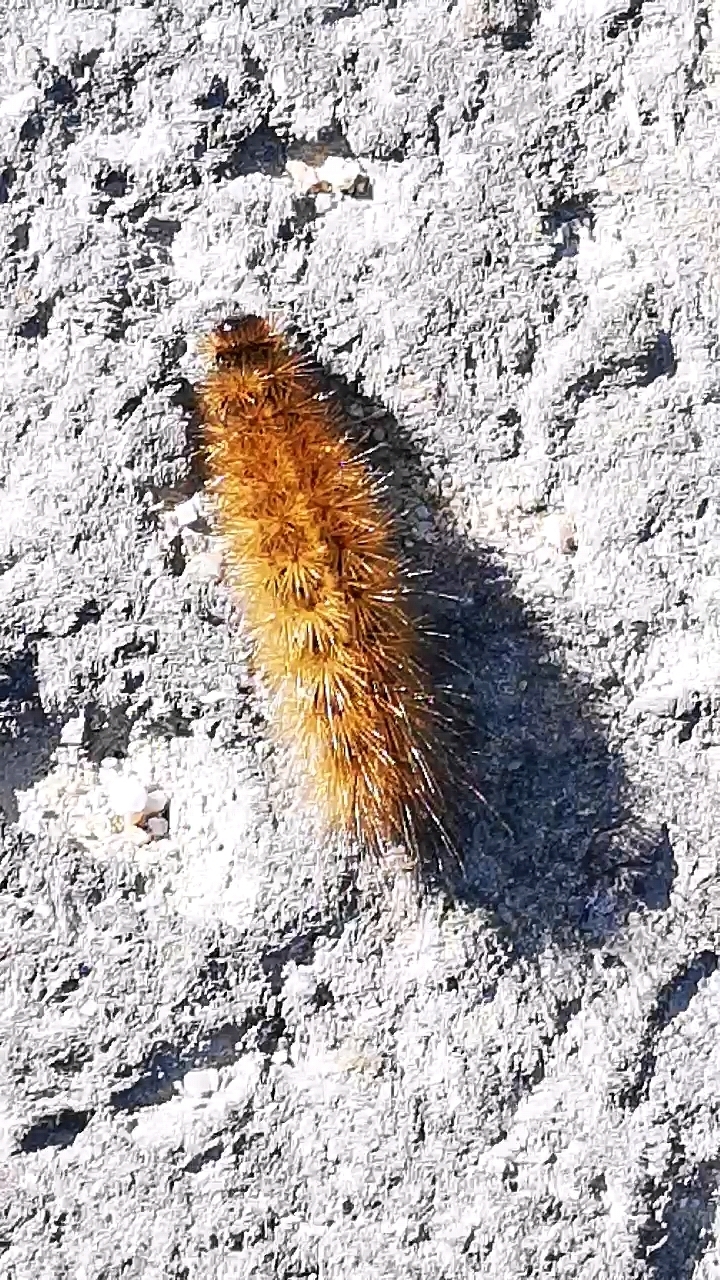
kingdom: Animalia
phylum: Arthropoda
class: Insecta
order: Lepidoptera
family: Erebidae
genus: Phragmatobia
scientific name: Phragmatobia fuliginosa
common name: Ruby tiger
